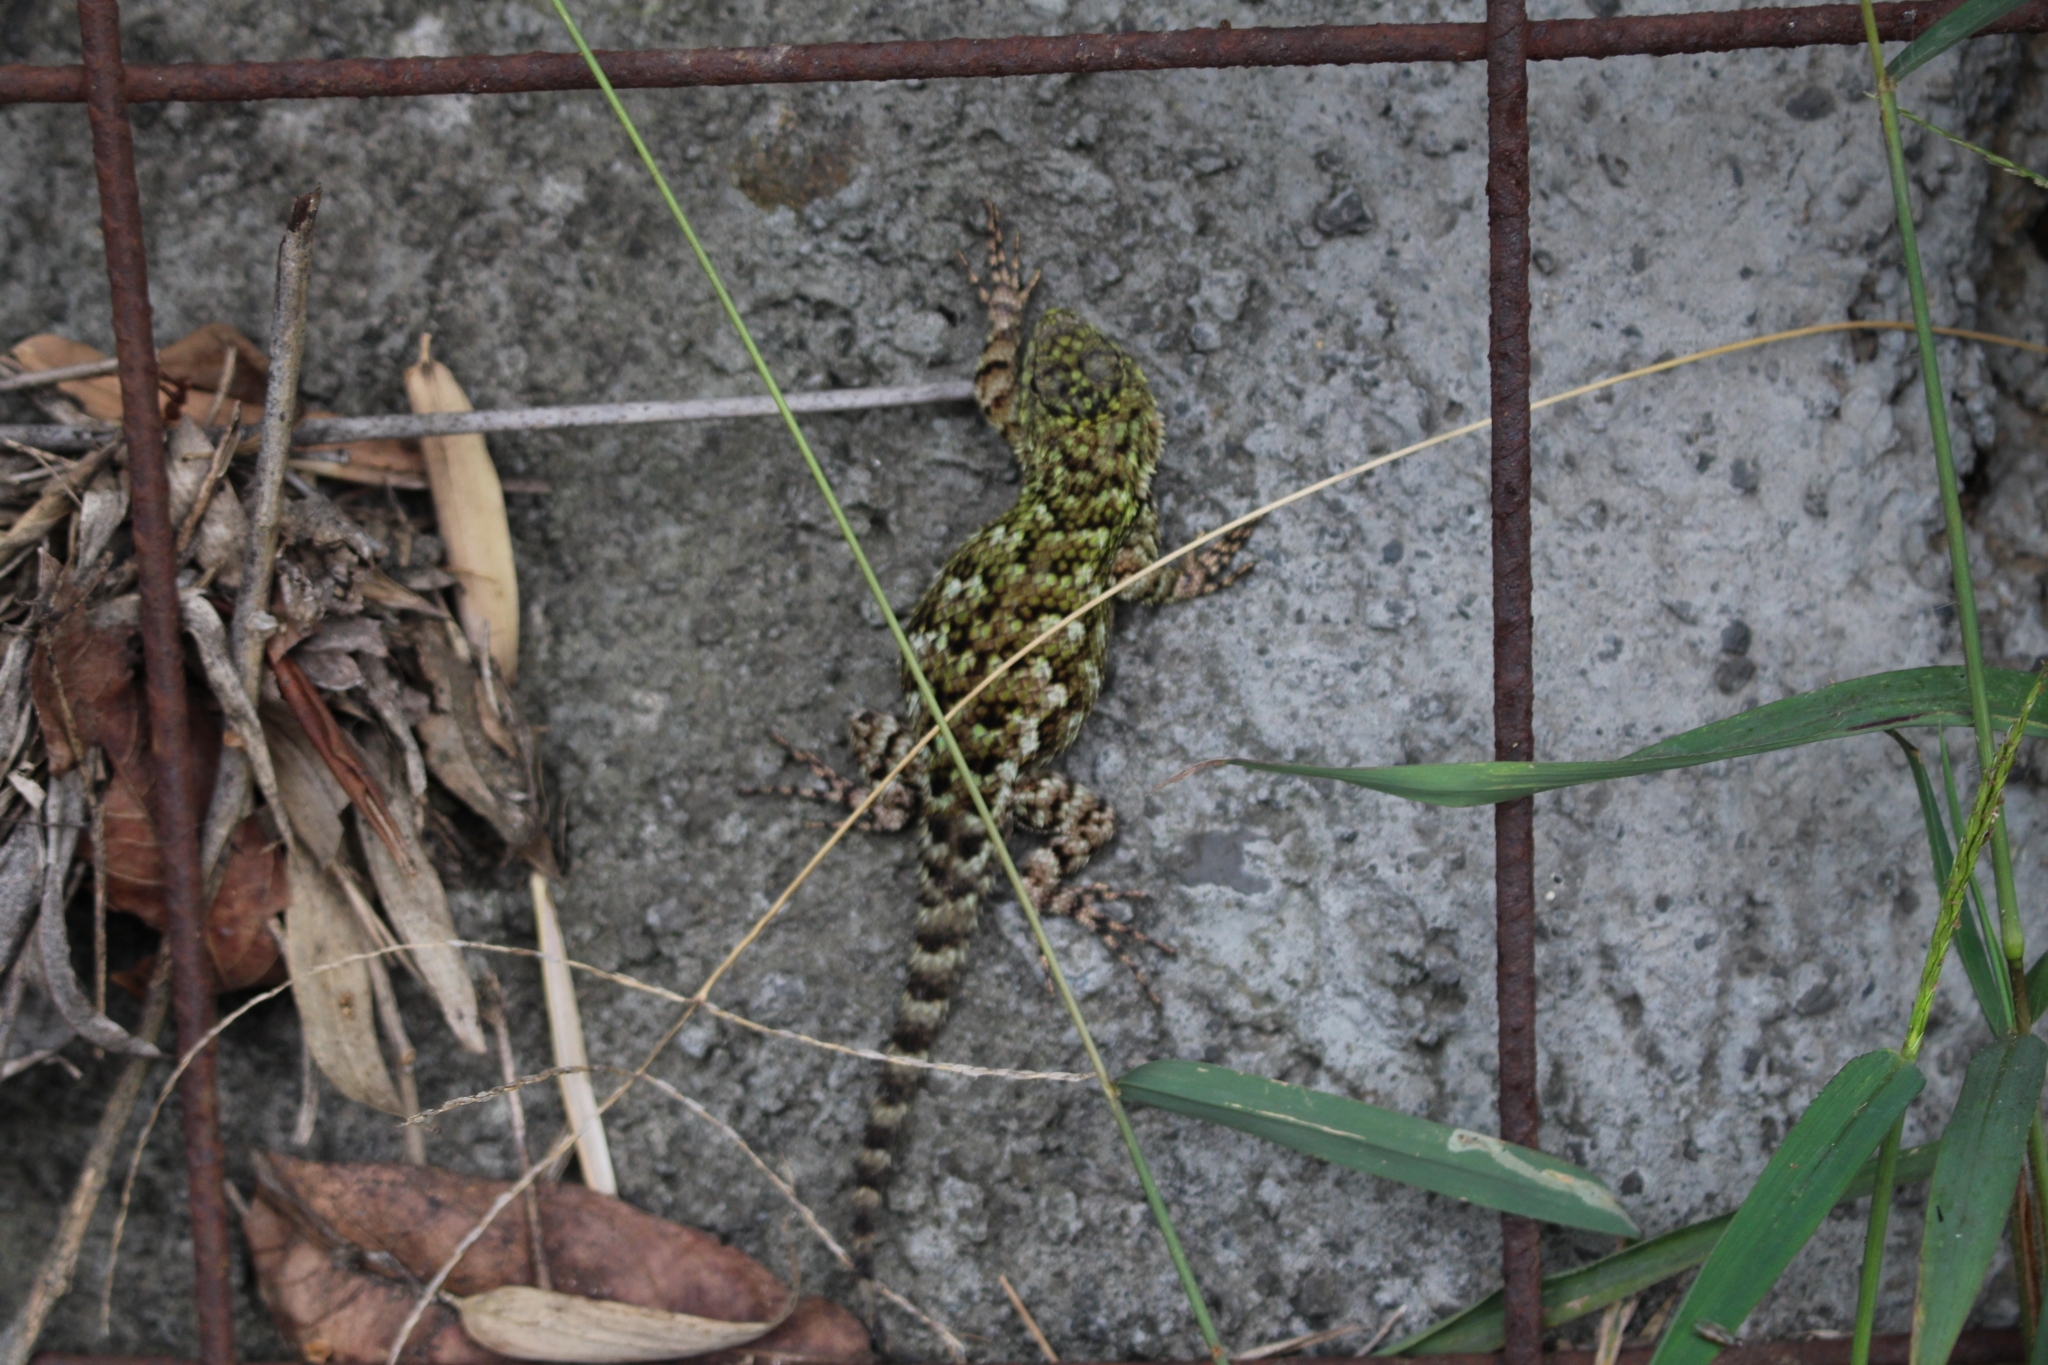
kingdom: Animalia
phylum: Chordata
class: Squamata
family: Phrynosomatidae
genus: Sceloporus
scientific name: Sceloporus malachiticus
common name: Green spiny lizard
